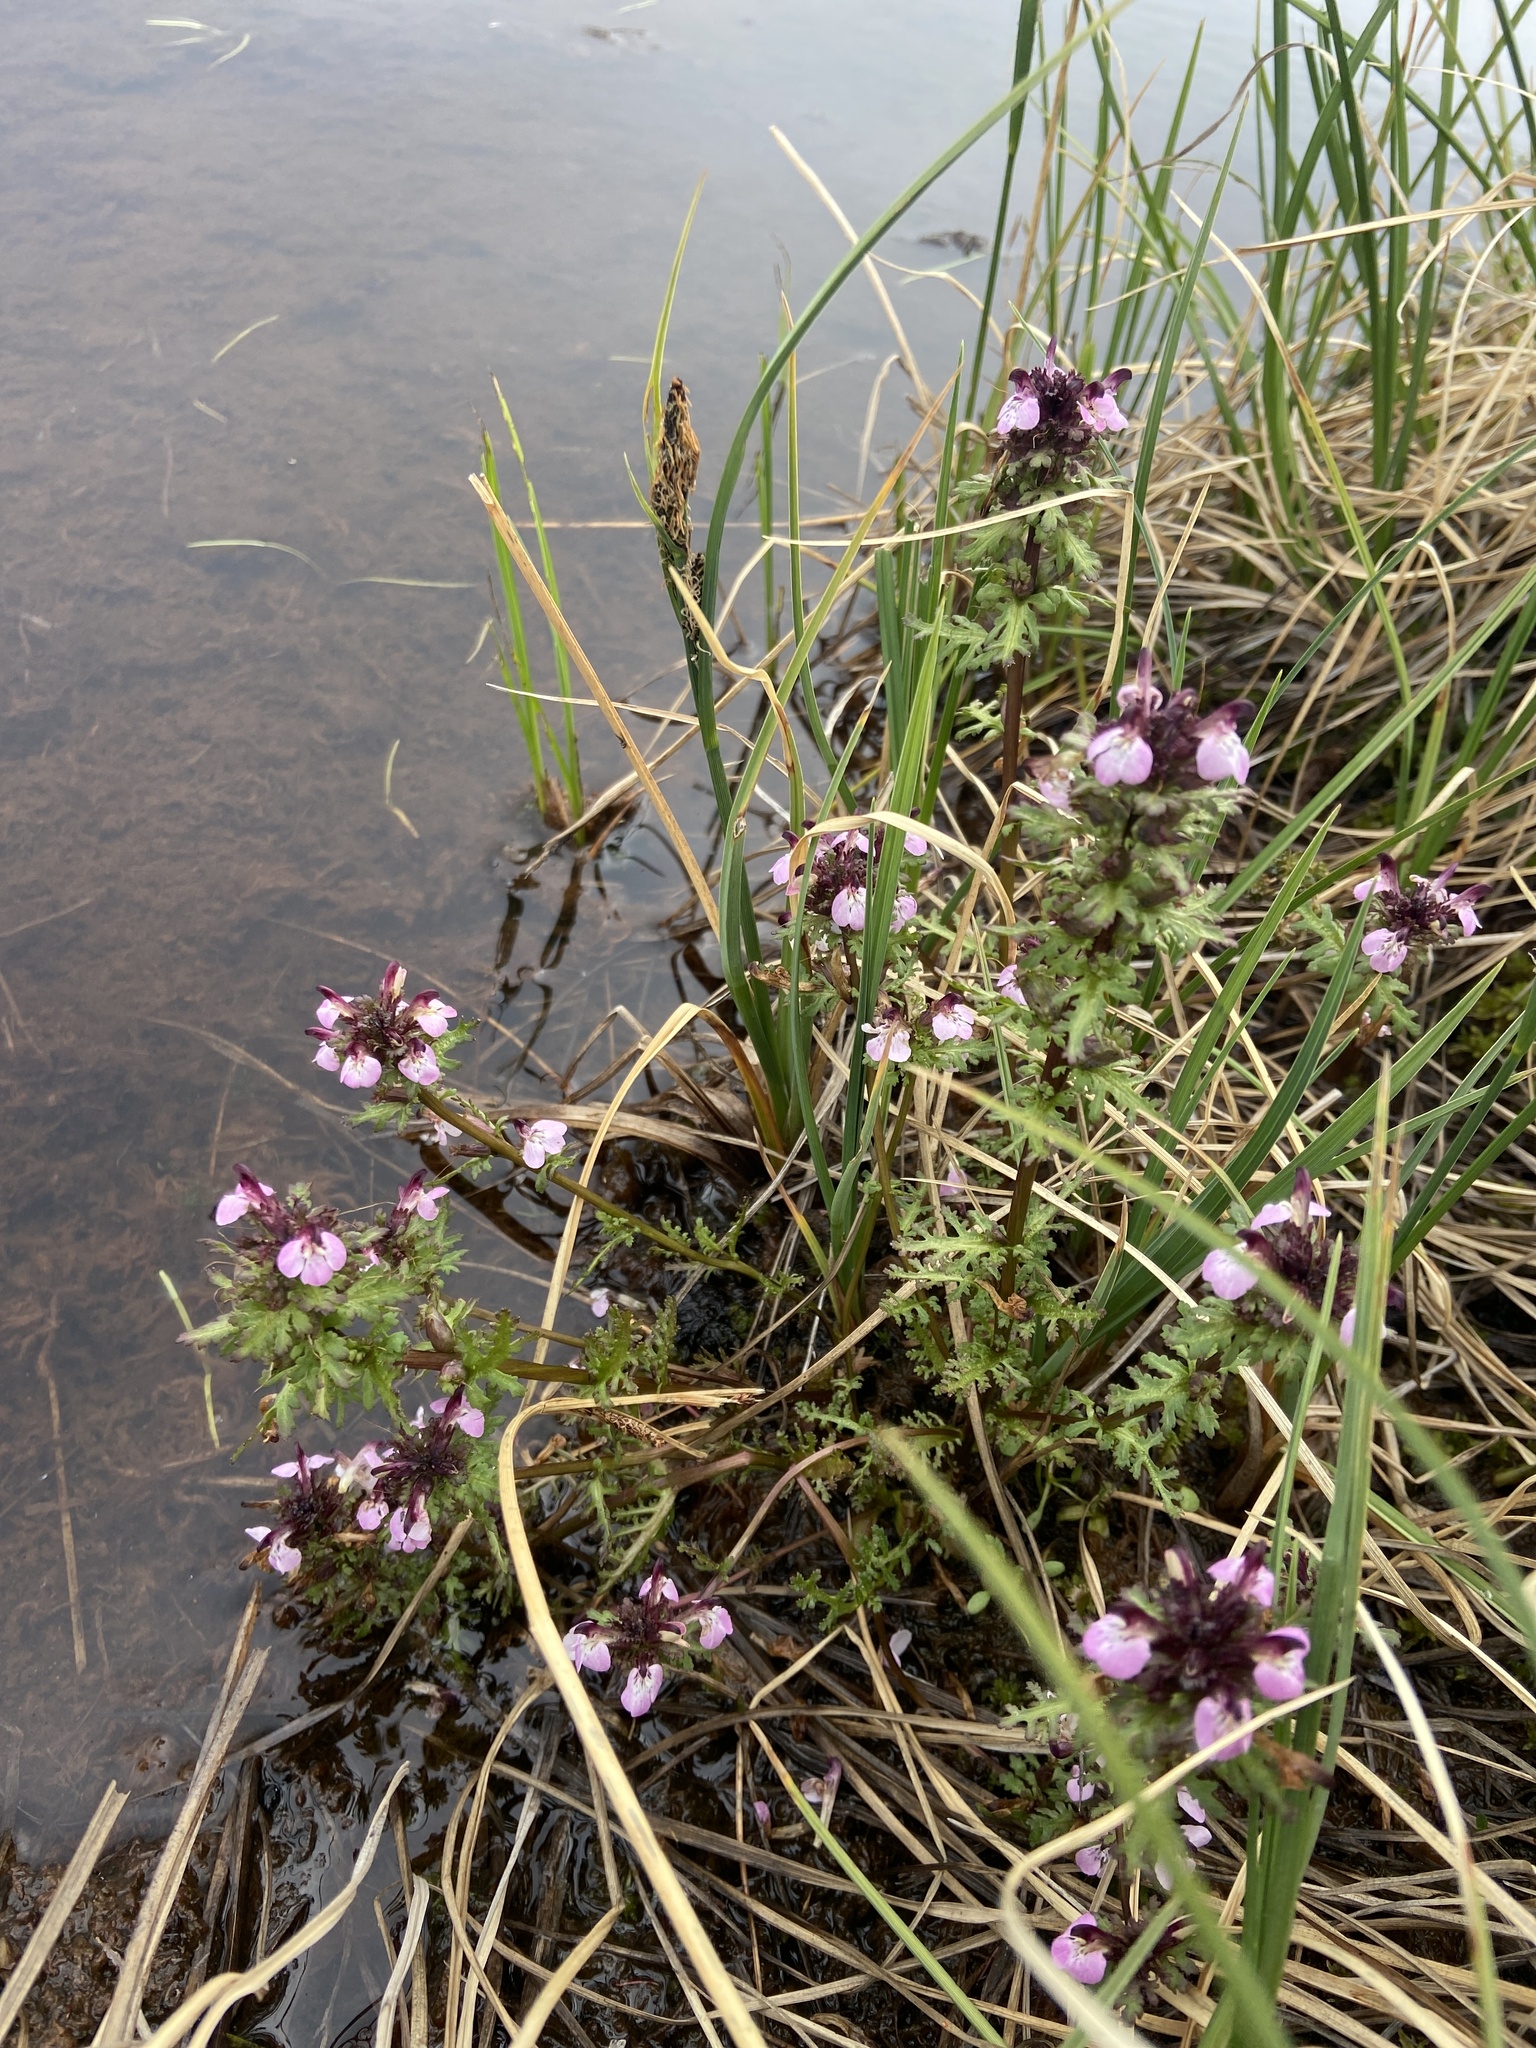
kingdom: Plantae
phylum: Tracheophyta
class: Magnoliopsida
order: Lamiales
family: Orobanchaceae
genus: Pedicularis
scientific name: Pedicularis pennellii
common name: Pennell's lousewort
